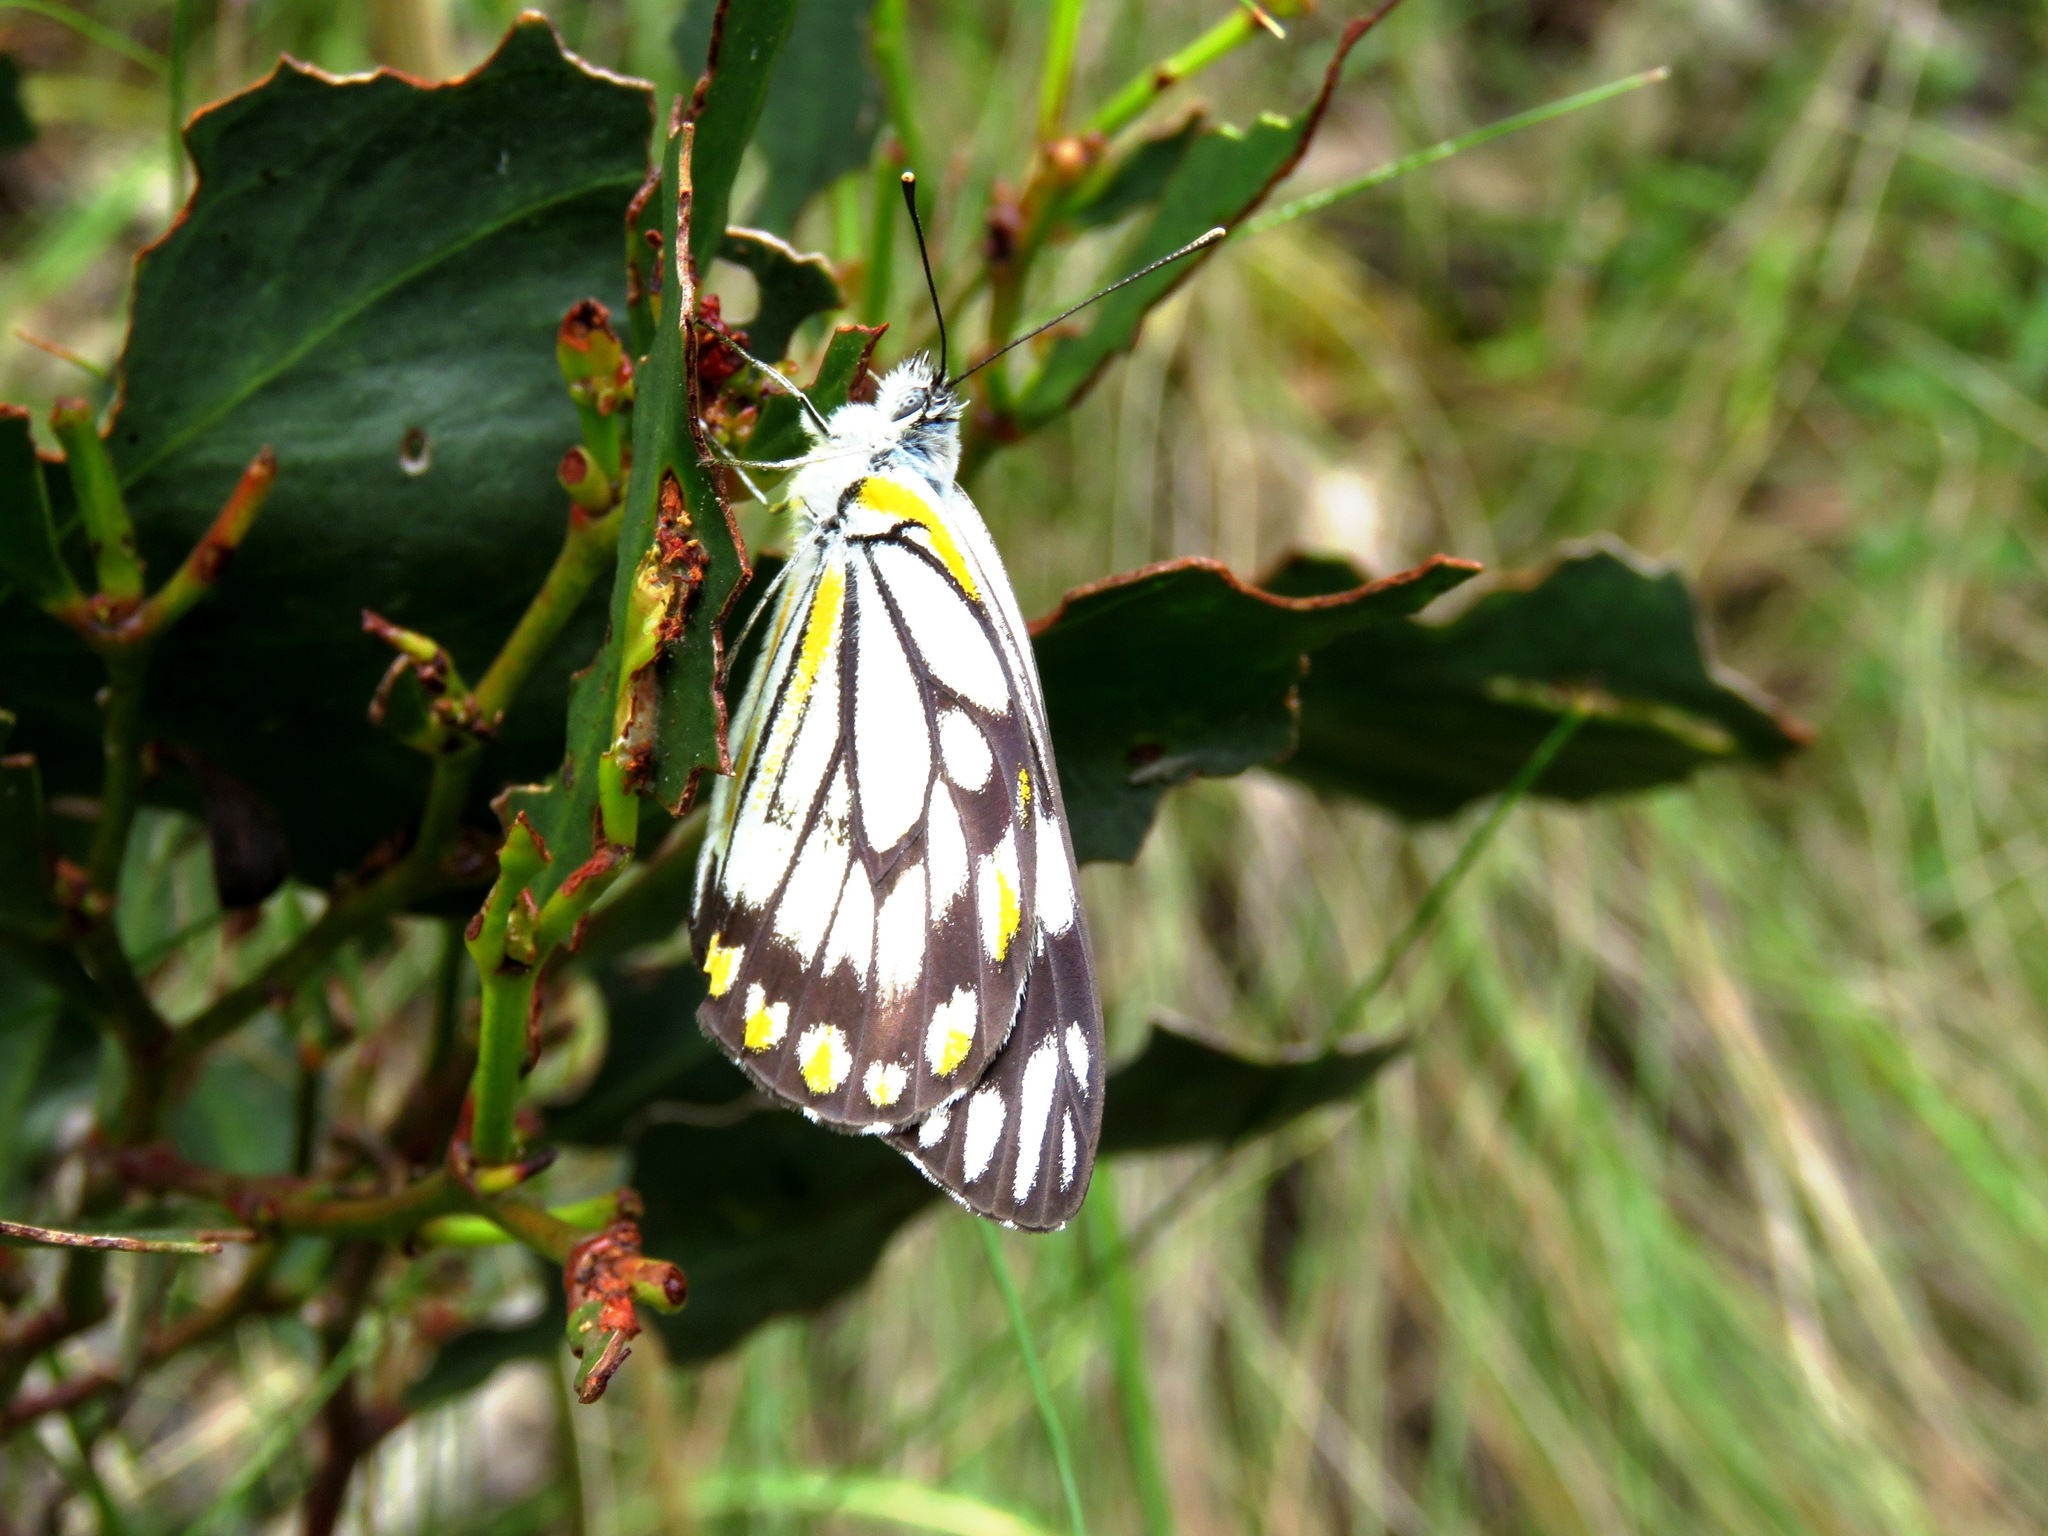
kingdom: Animalia
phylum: Arthropoda
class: Insecta
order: Lepidoptera
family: Pieridae
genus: Belenois
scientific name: Belenois java
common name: Caper white
